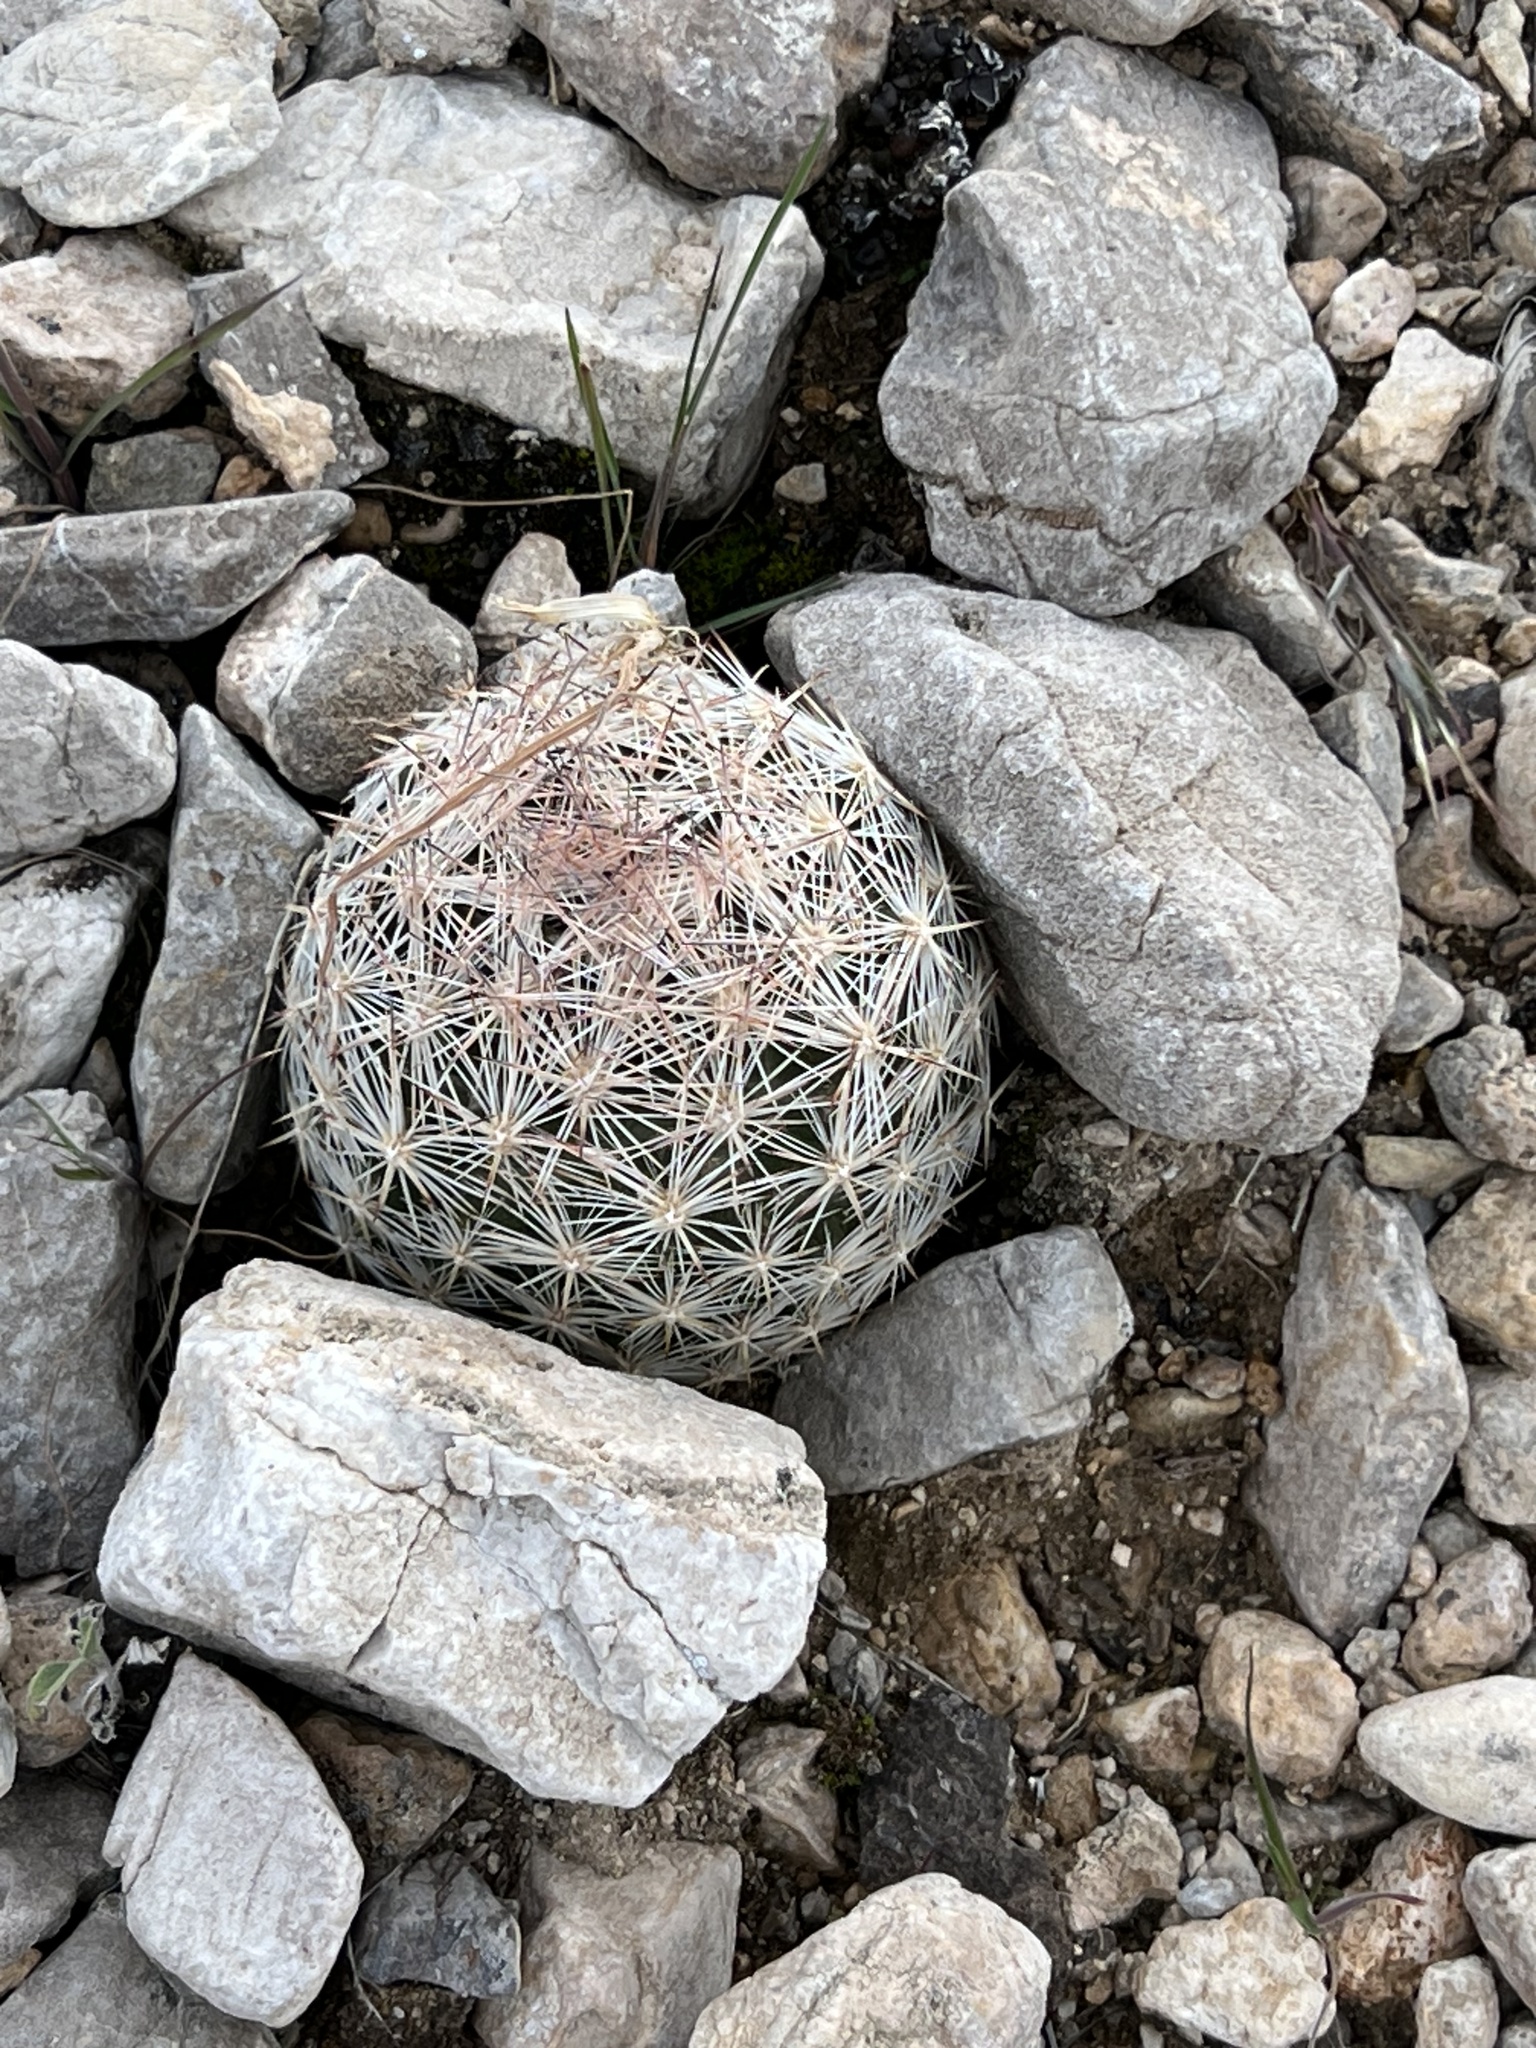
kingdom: Plantae
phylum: Tracheophyta
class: Magnoliopsida
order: Caryophyllales
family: Cactaceae
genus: Pelecyphora
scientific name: Pelecyphora dasyacantha
